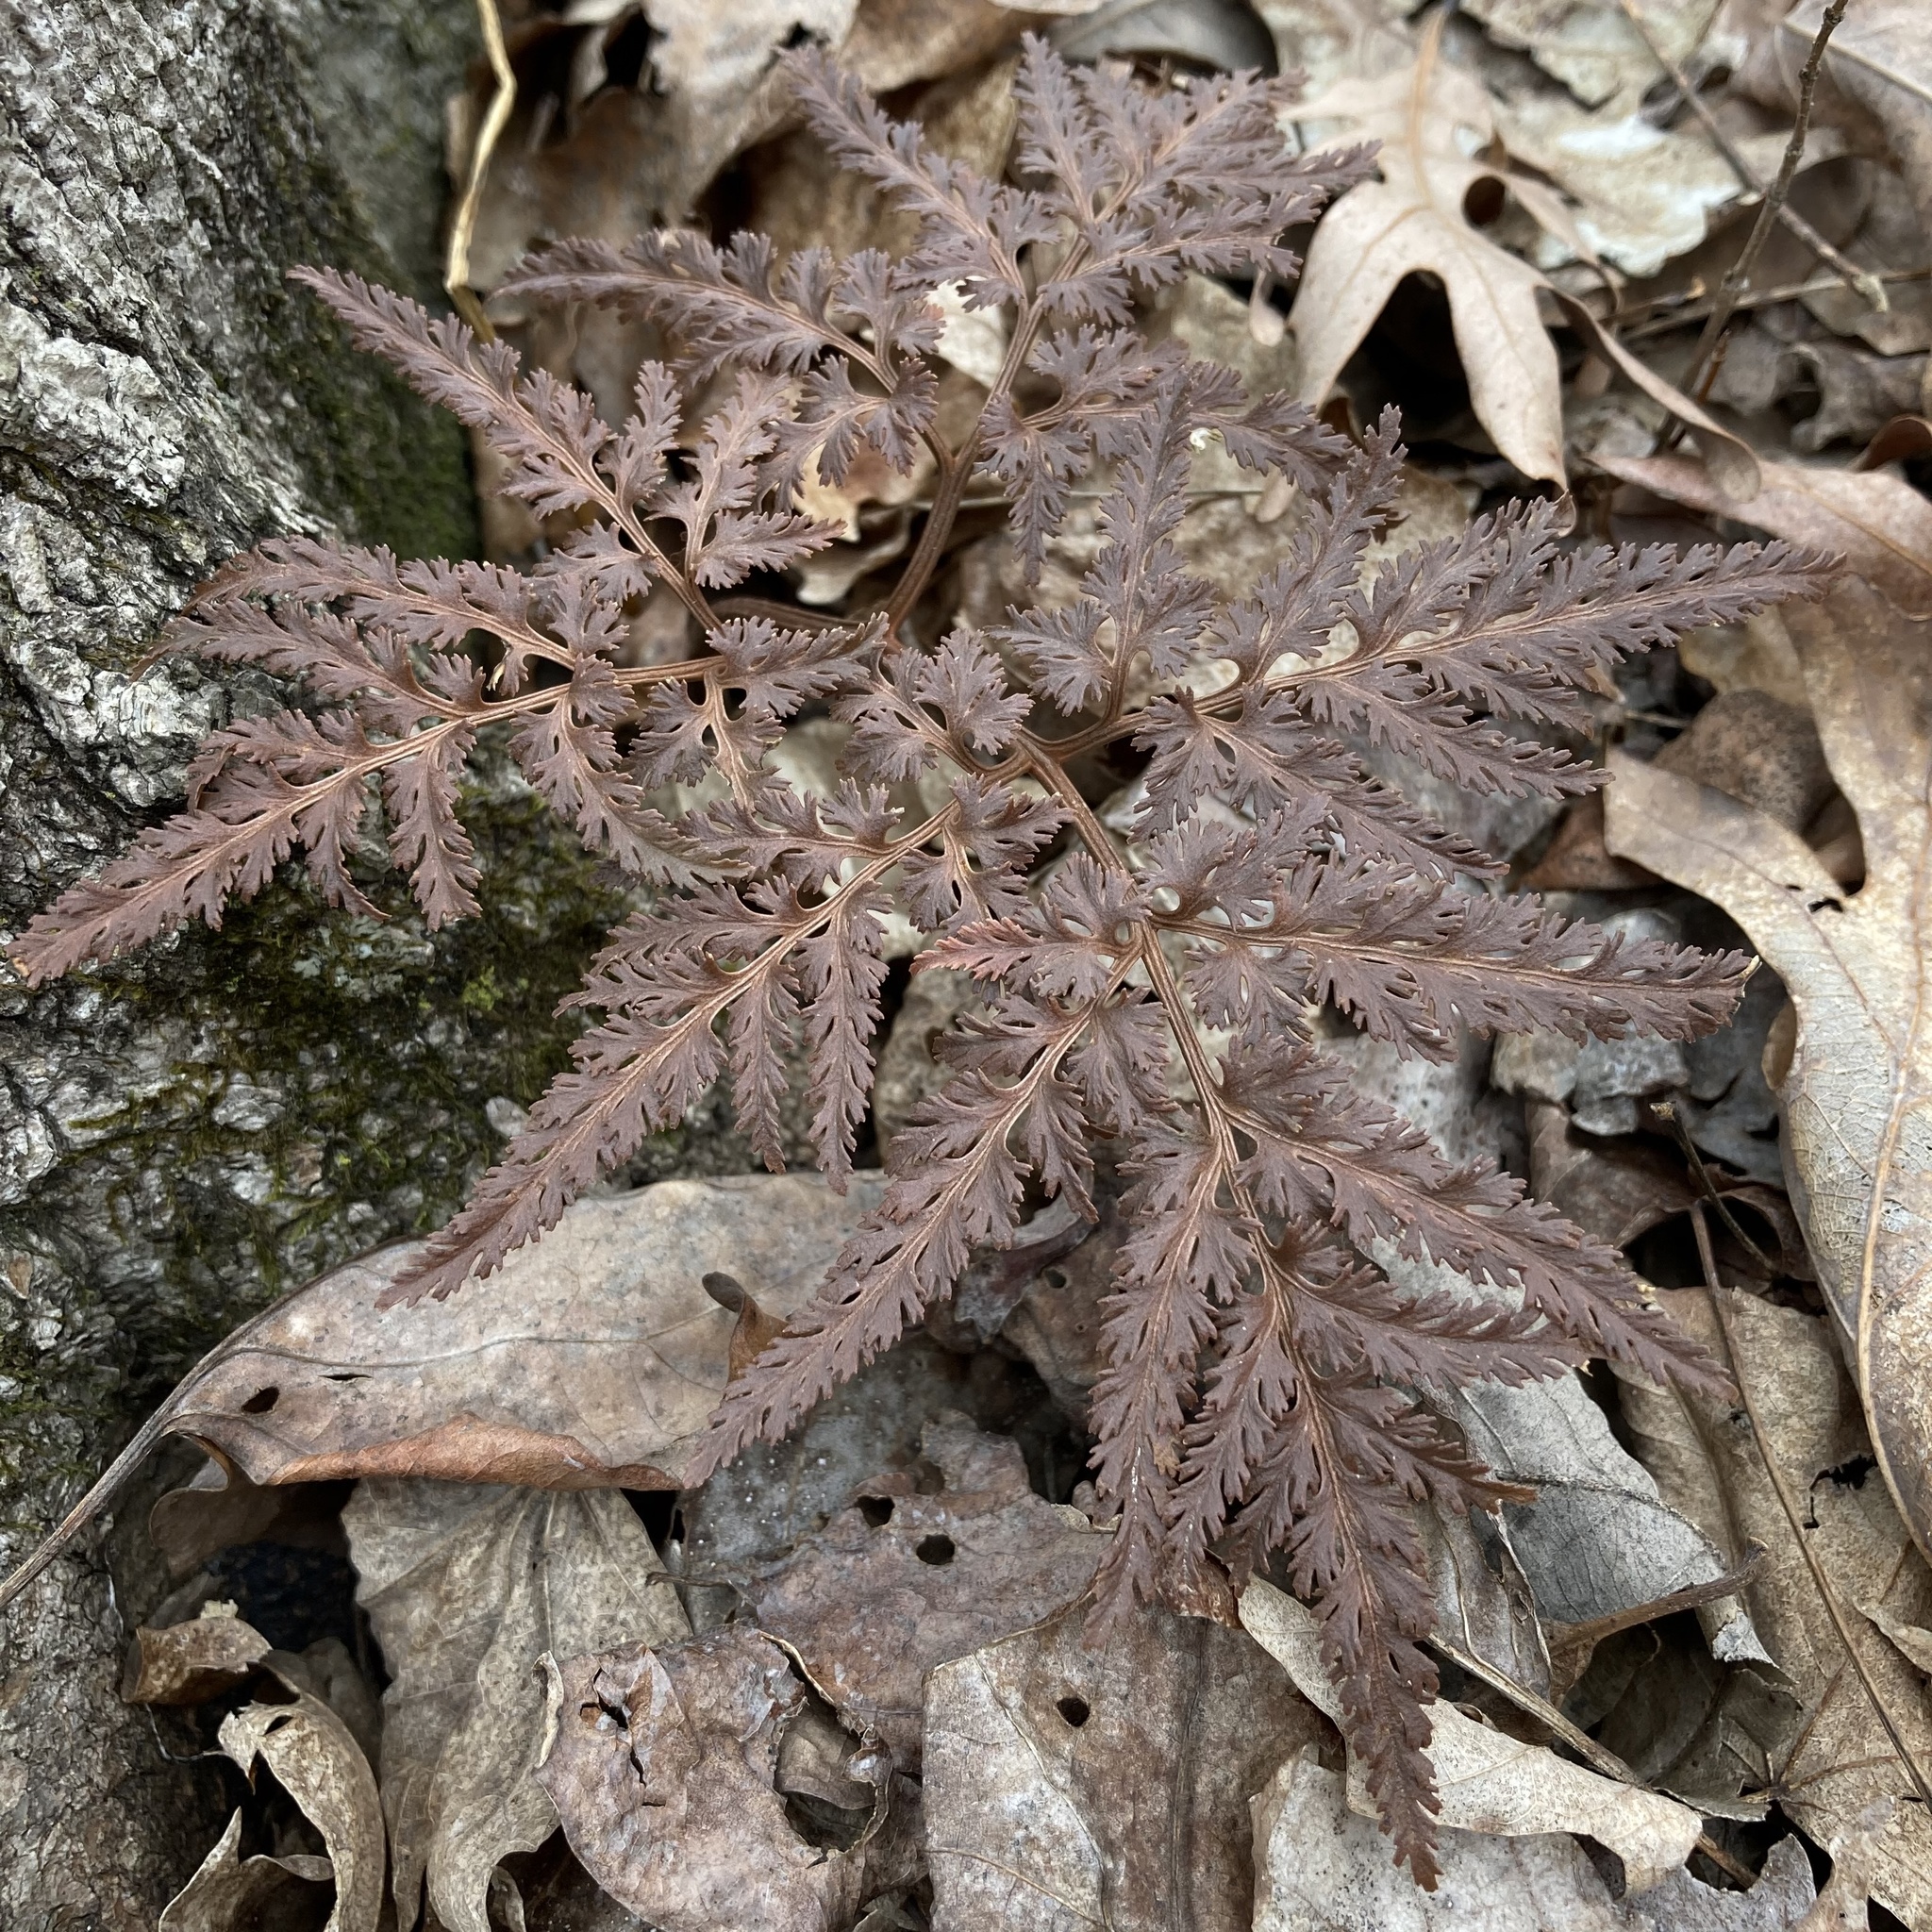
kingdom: Plantae
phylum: Tracheophyta
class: Polypodiopsida
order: Ophioglossales
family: Ophioglossaceae
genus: Sceptridium
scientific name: Sceptridium dissectum
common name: Cut-leaved grapefern
